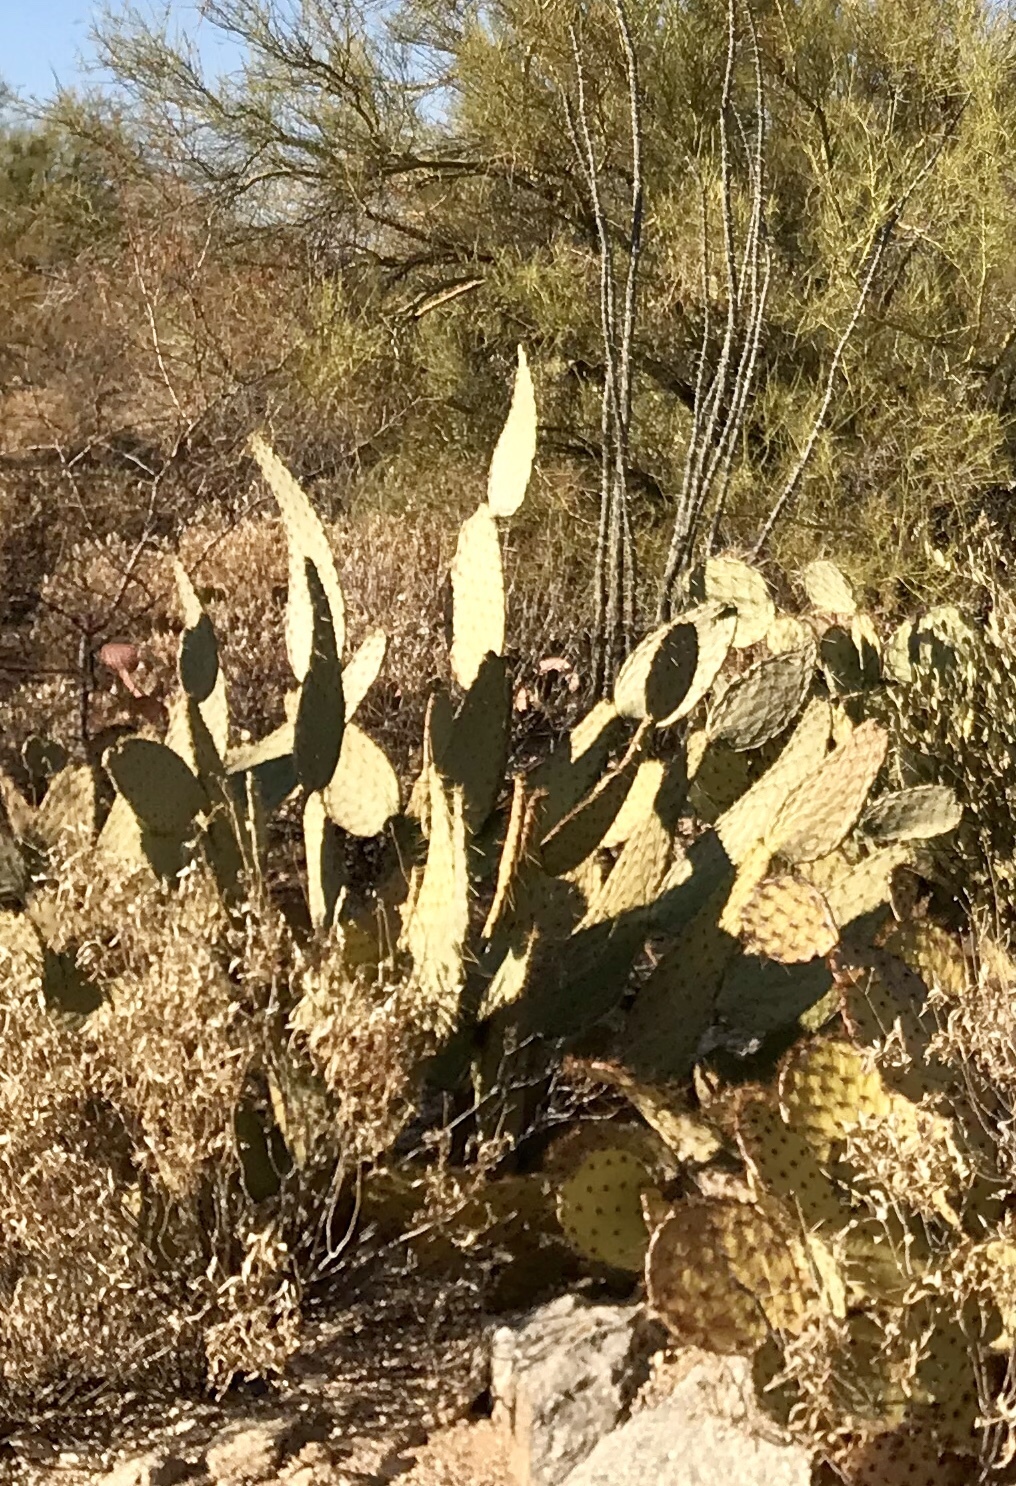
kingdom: Plantae
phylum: Tracheophyta
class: Magnoliopsida
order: Caryophyllales
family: Cactaceae
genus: Opuntia
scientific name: Opuntia engelmannii
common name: Cactus-apple
